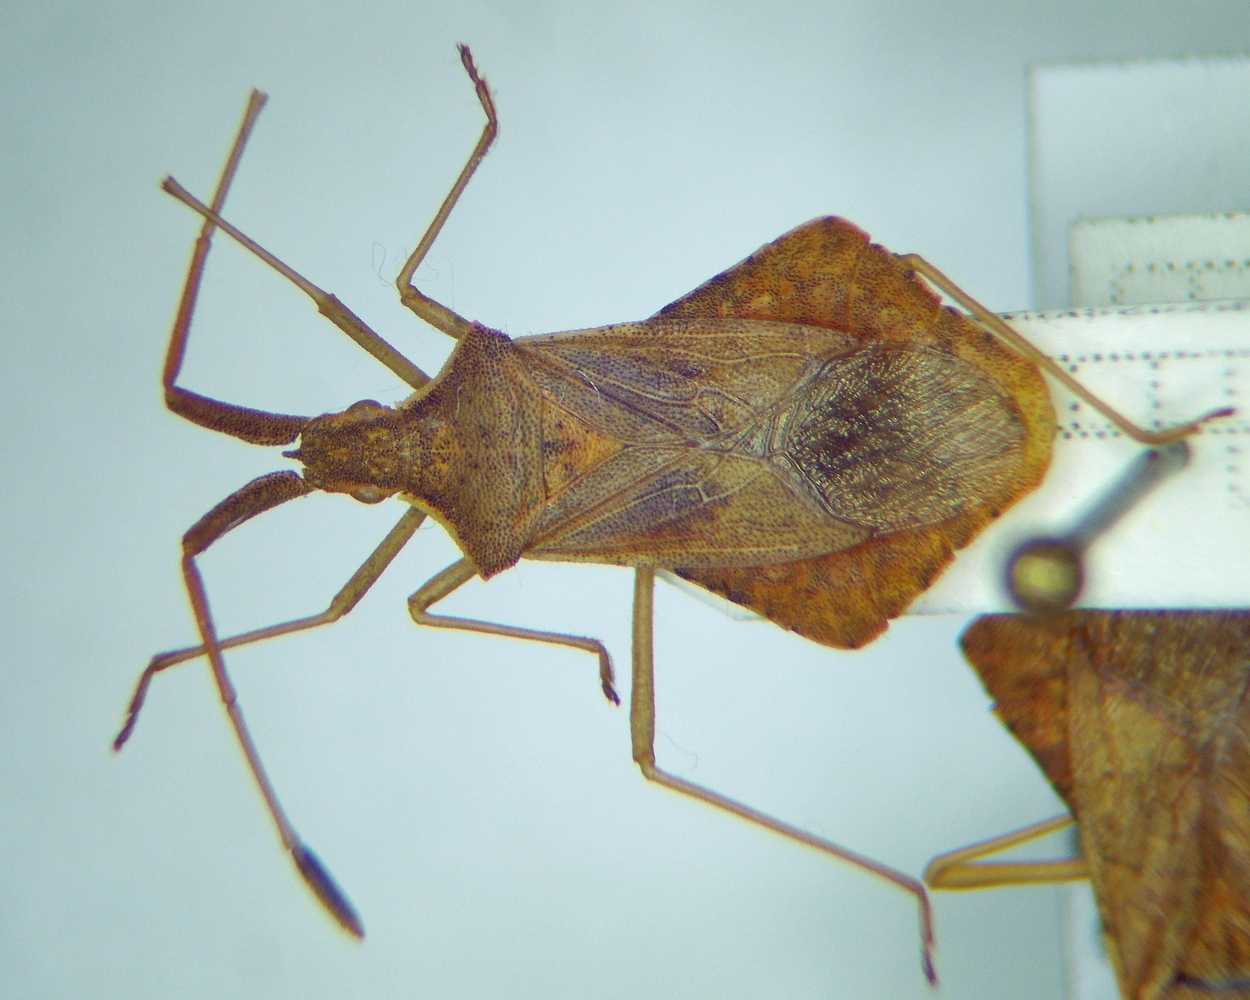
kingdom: Animalia
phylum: Arthropoda
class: Insecta
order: Hemiptera
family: Coreidae
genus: Syromastus
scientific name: Syromastus rhombeus
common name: Rhombic leatherbug
